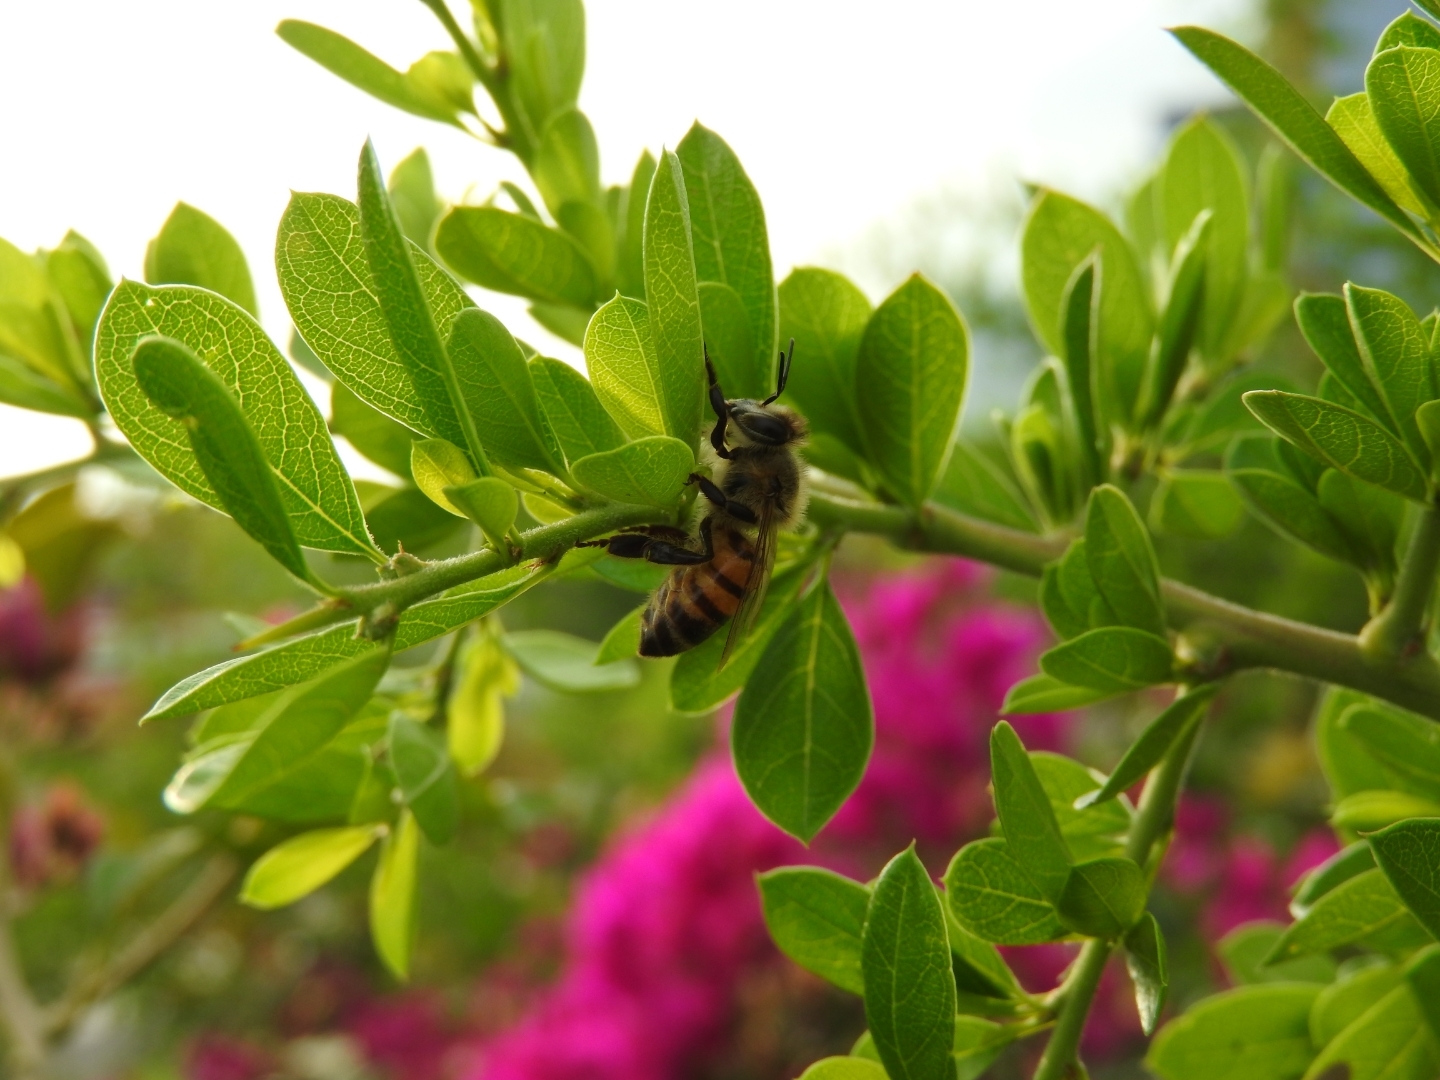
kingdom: Animalia
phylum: Arthropoda
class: Insecta
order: Hymenoptera
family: Apidae
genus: Apis
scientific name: Apis mellifera
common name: Honey bee
